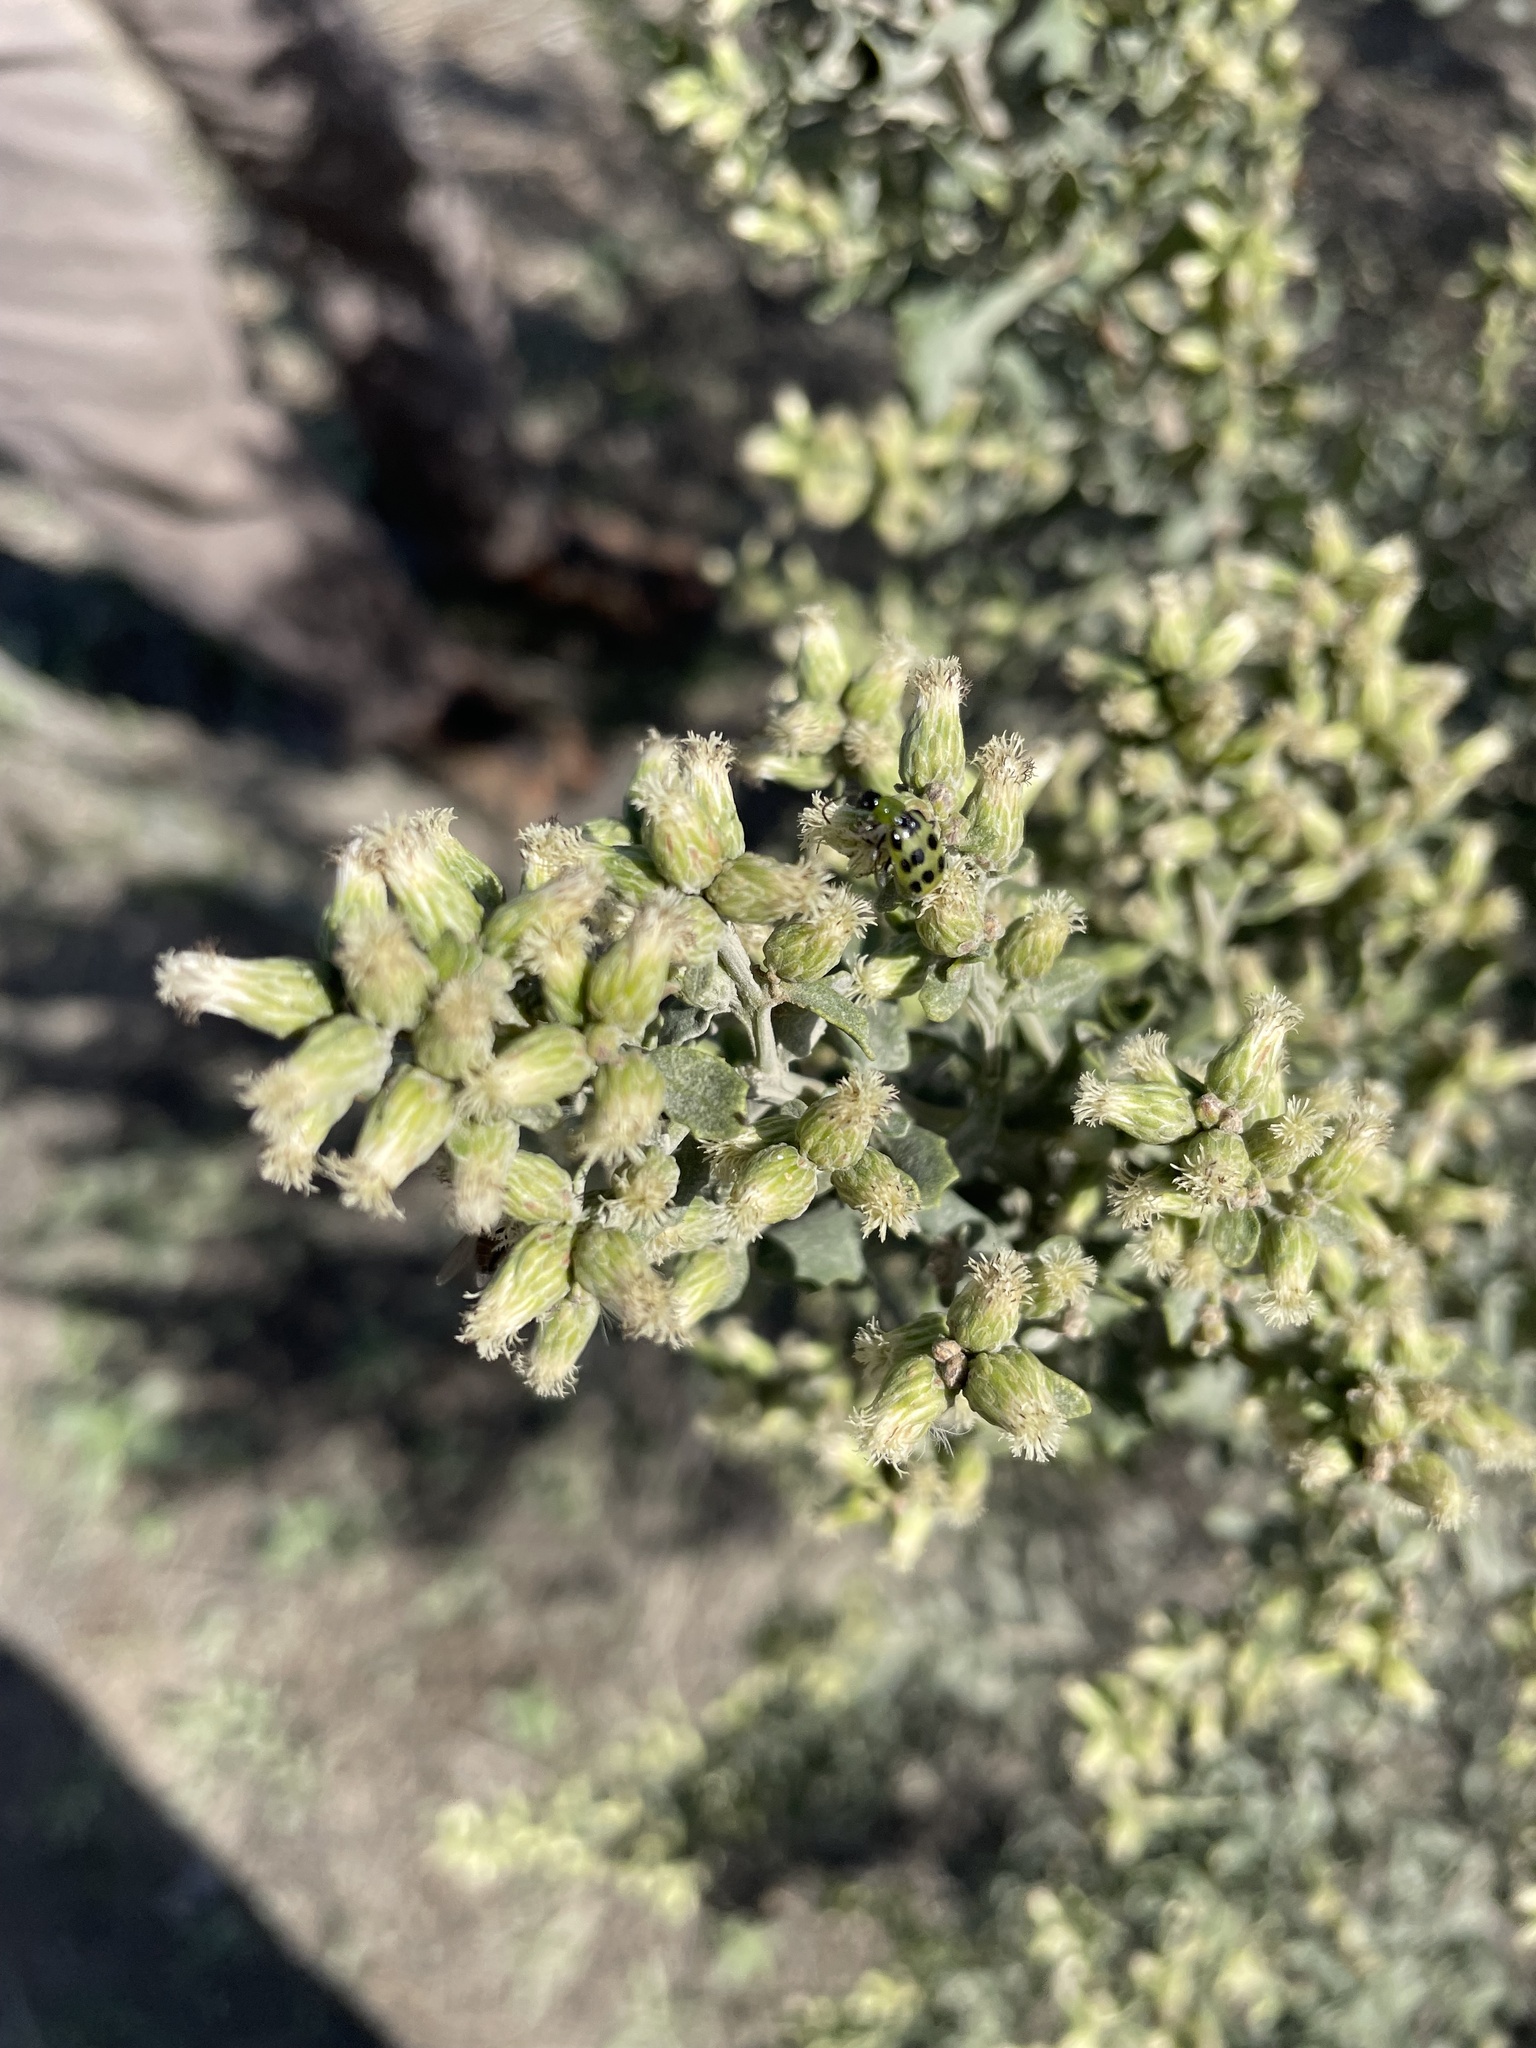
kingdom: Plantae
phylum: Tracheophyta
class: Magnoliopsida
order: Asterales
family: Asteraceae
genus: Baccharis
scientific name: Baccharis pilularis
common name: Coyotebrush
